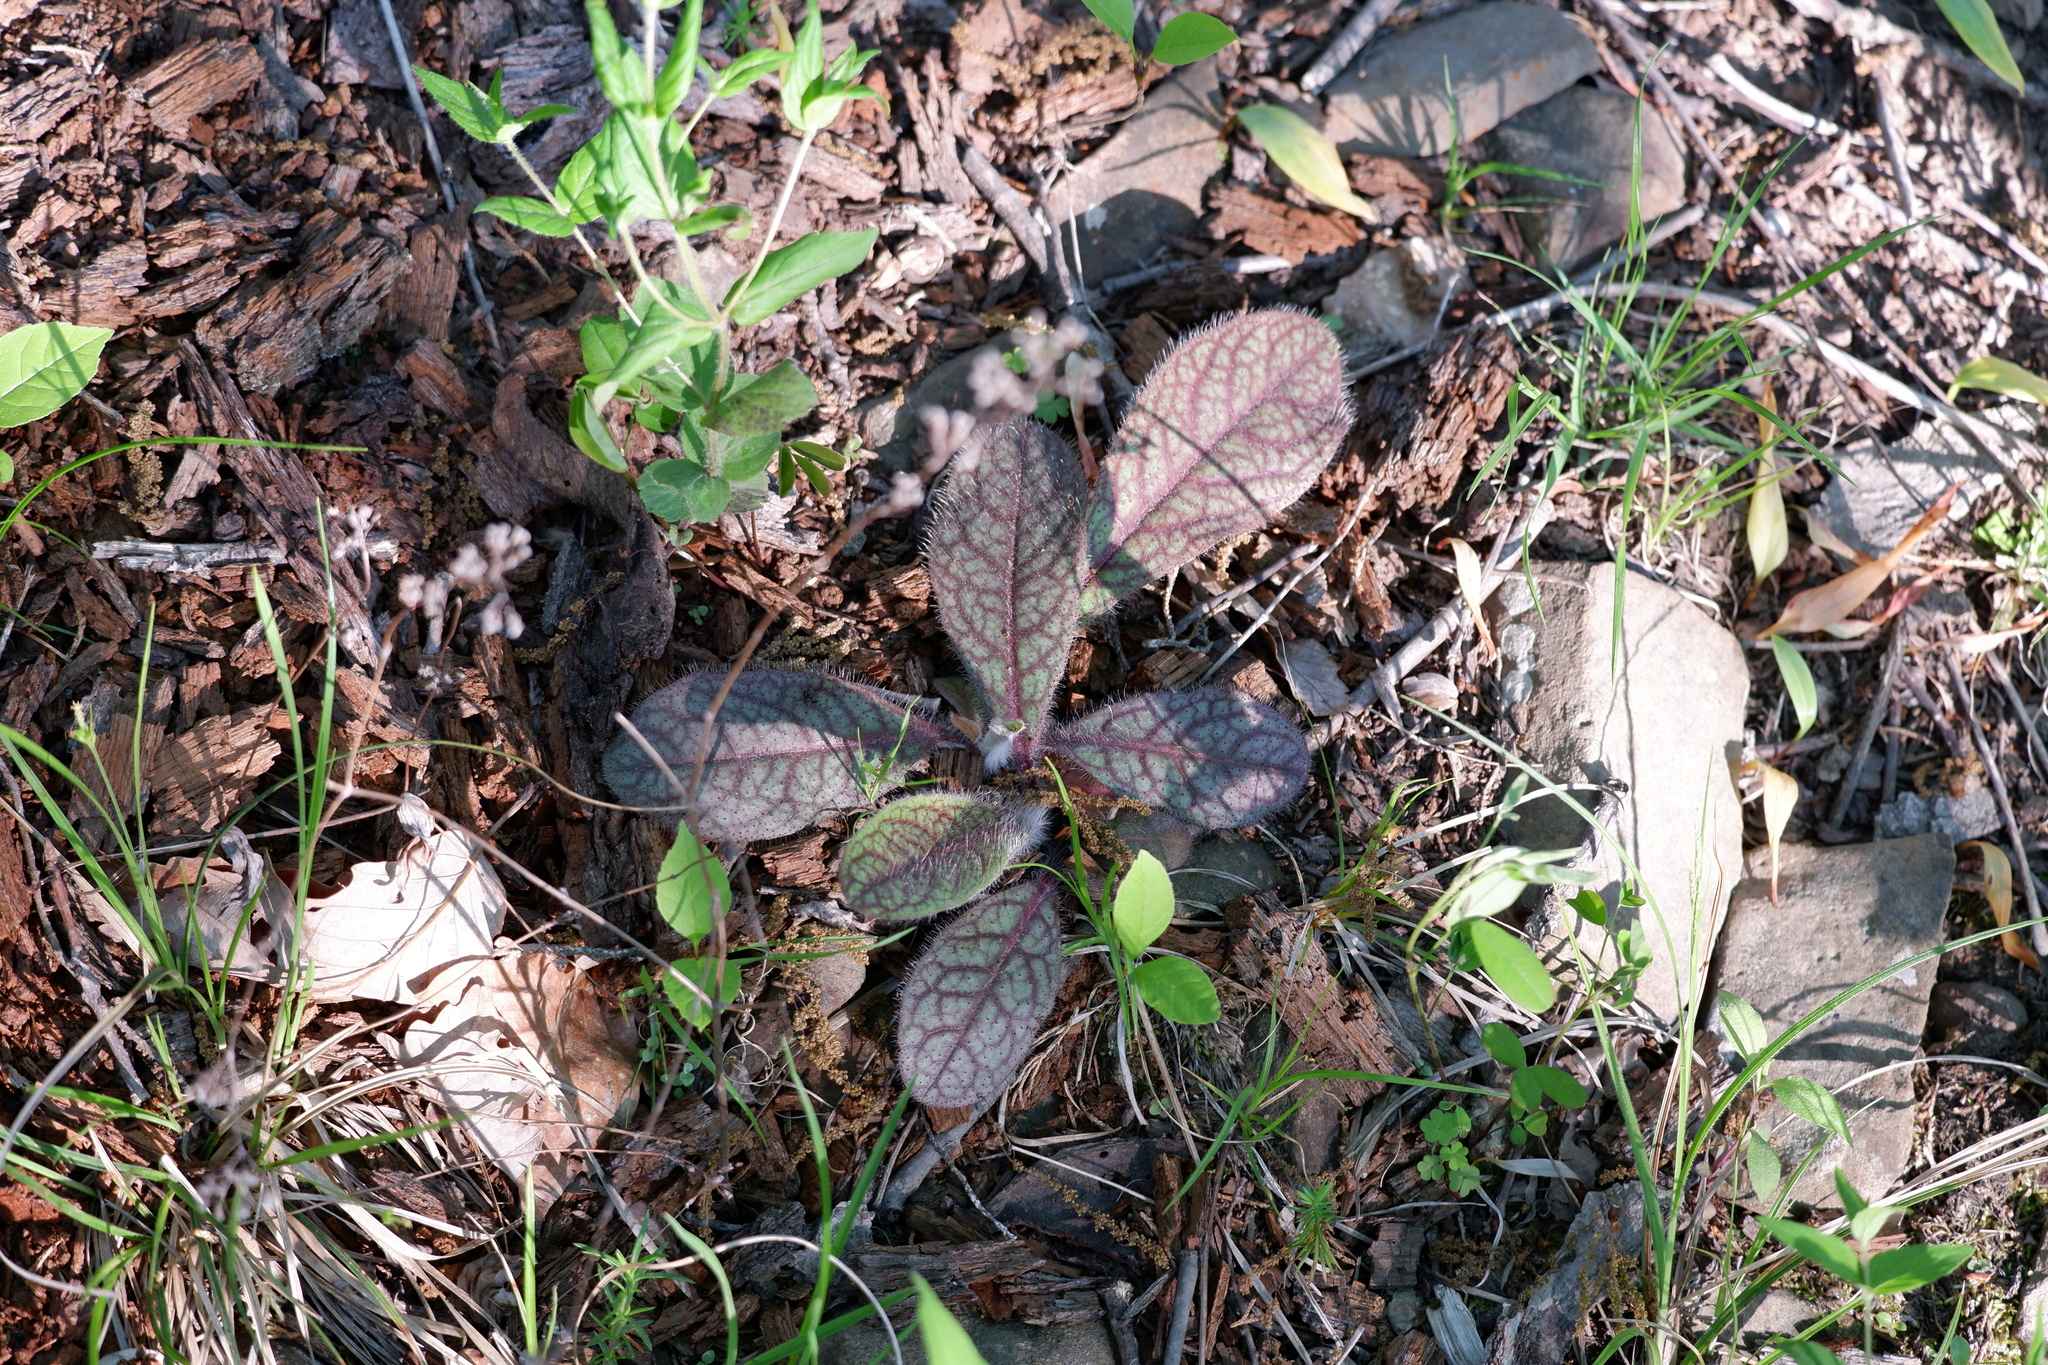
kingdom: Plantae
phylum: Tracheophyta
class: Magnoliopsida
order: Asterales
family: Asteraceae
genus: Hieracium
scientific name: Hieracium venosum
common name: Rattlesnake hawkweed
